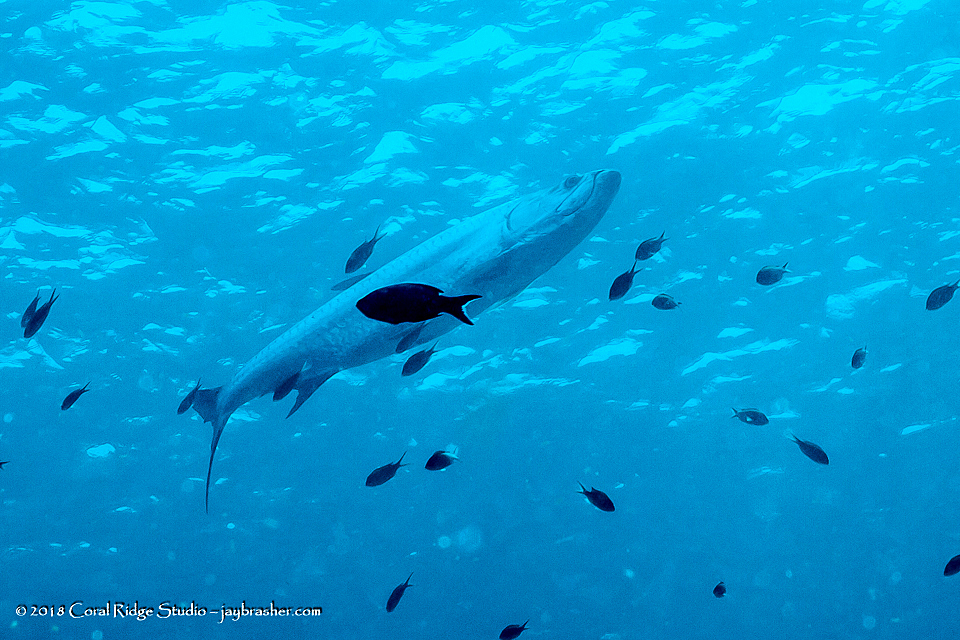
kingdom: Animalia
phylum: Chordata
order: Elopiformes
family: Megalopidae
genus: Megalops
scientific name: Megalops atlanticus
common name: Tarpon
